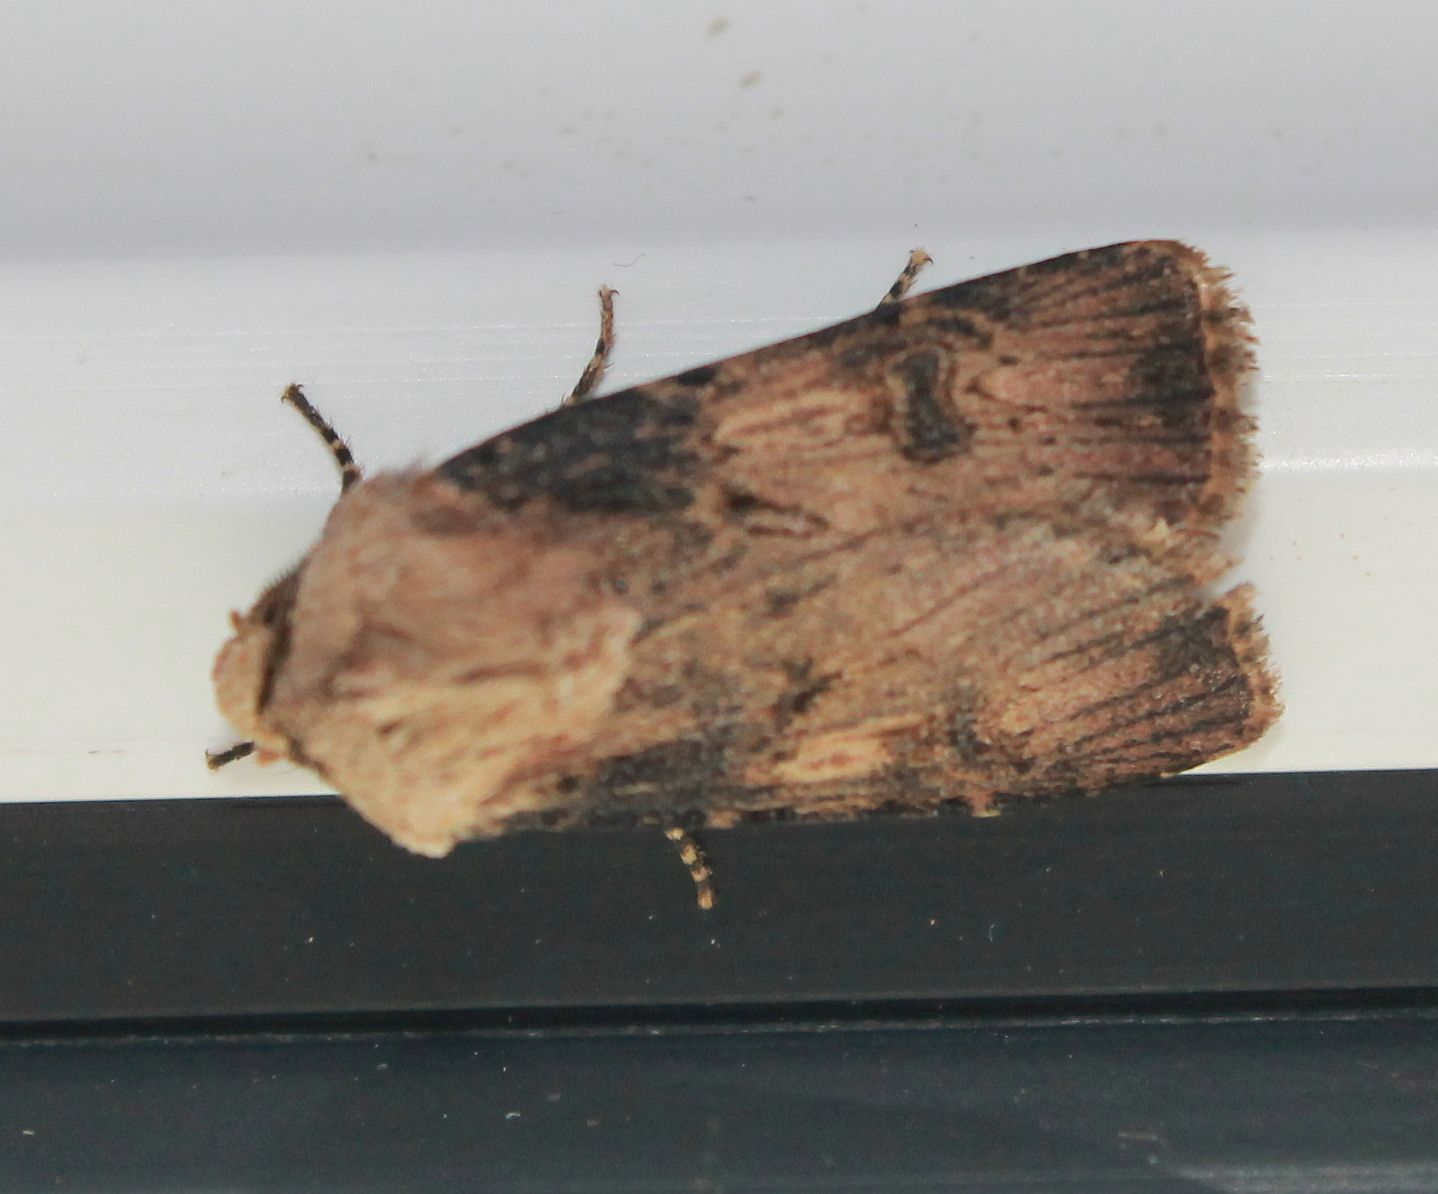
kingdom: Animalia
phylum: Arthropoda
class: Insecta
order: Lepidoptera
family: Noctuidae
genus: Agrotis
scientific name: Agrotis puta
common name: Shuttle-shaped dart
